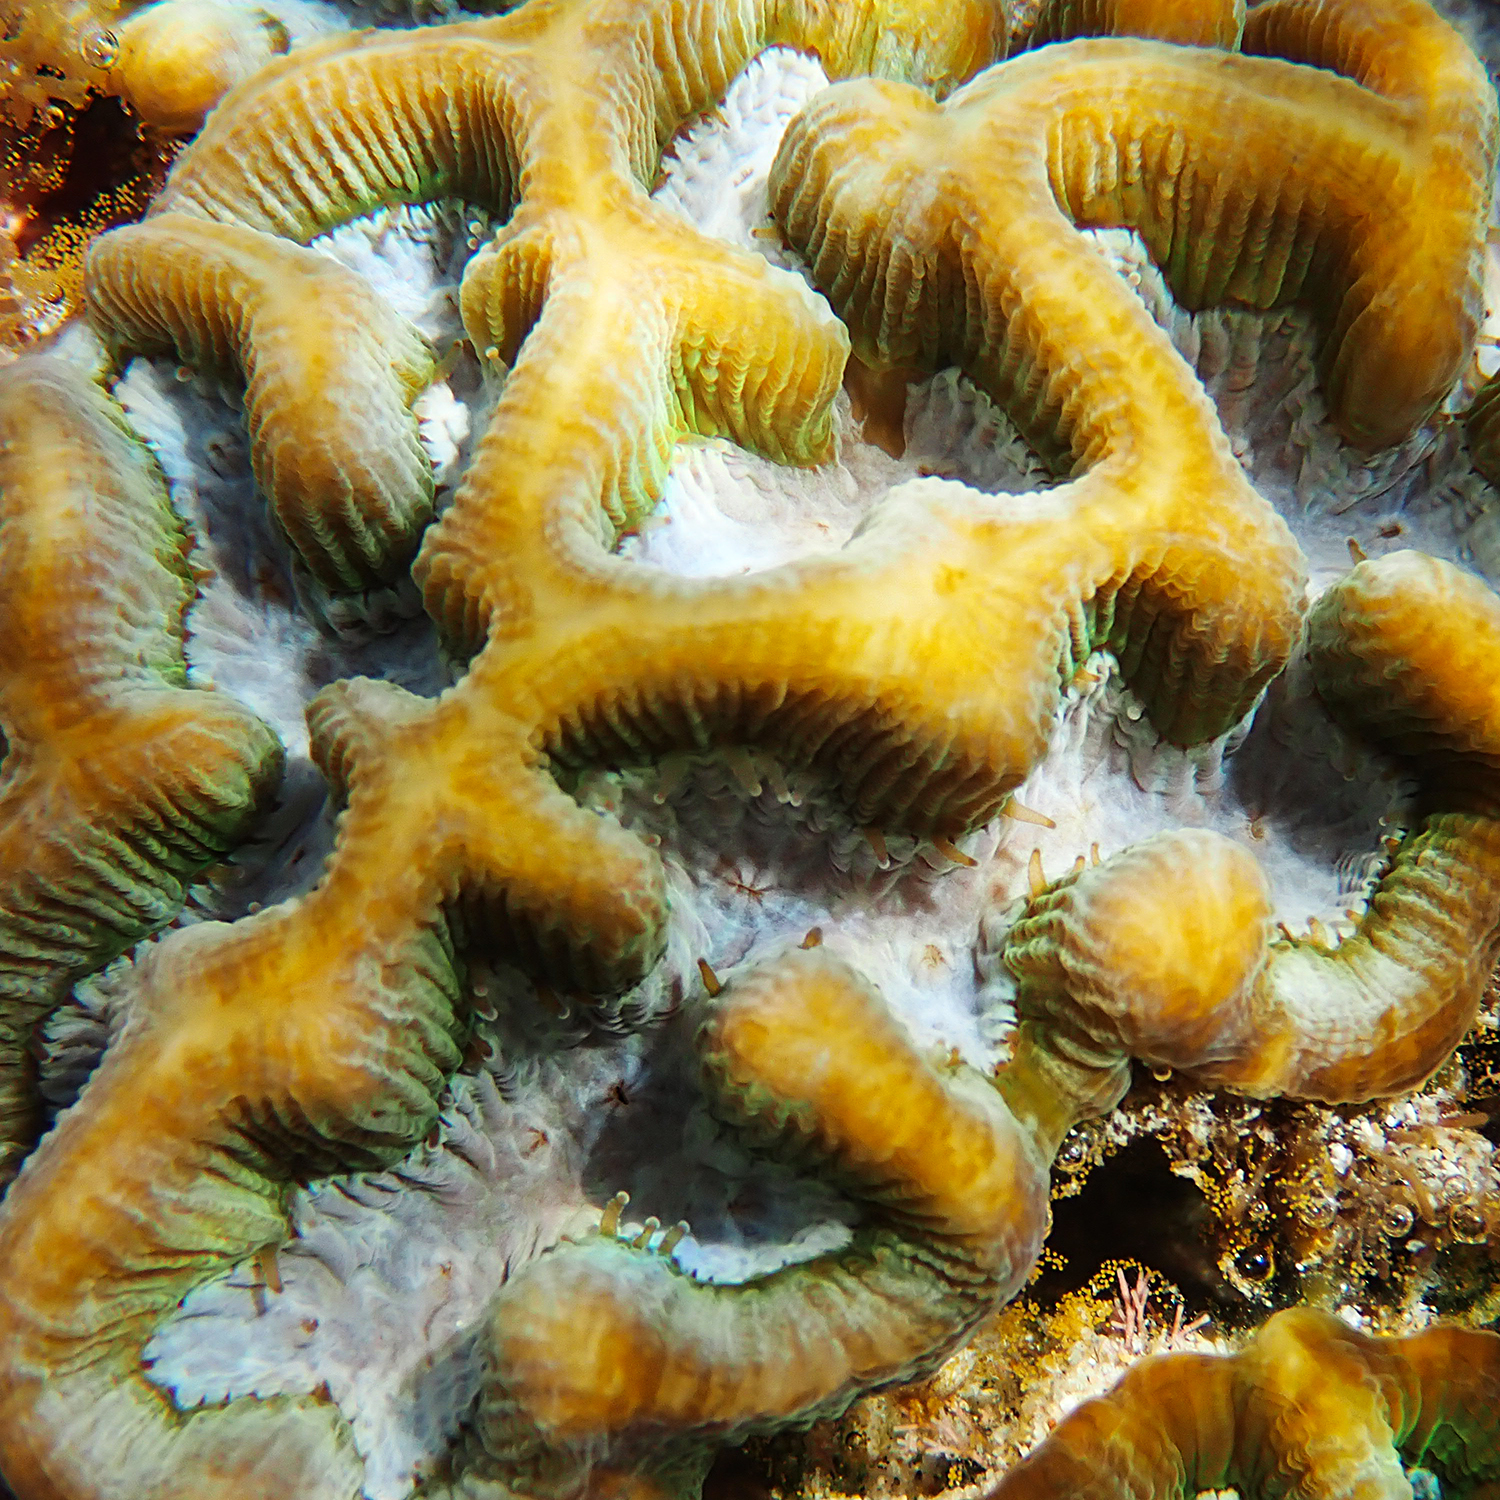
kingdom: Animalia
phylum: Cnidaria
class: Anthozoa
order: Scleractinia
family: Merulinidae
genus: Paragoniastrea
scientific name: Paragoniastrea australensis
